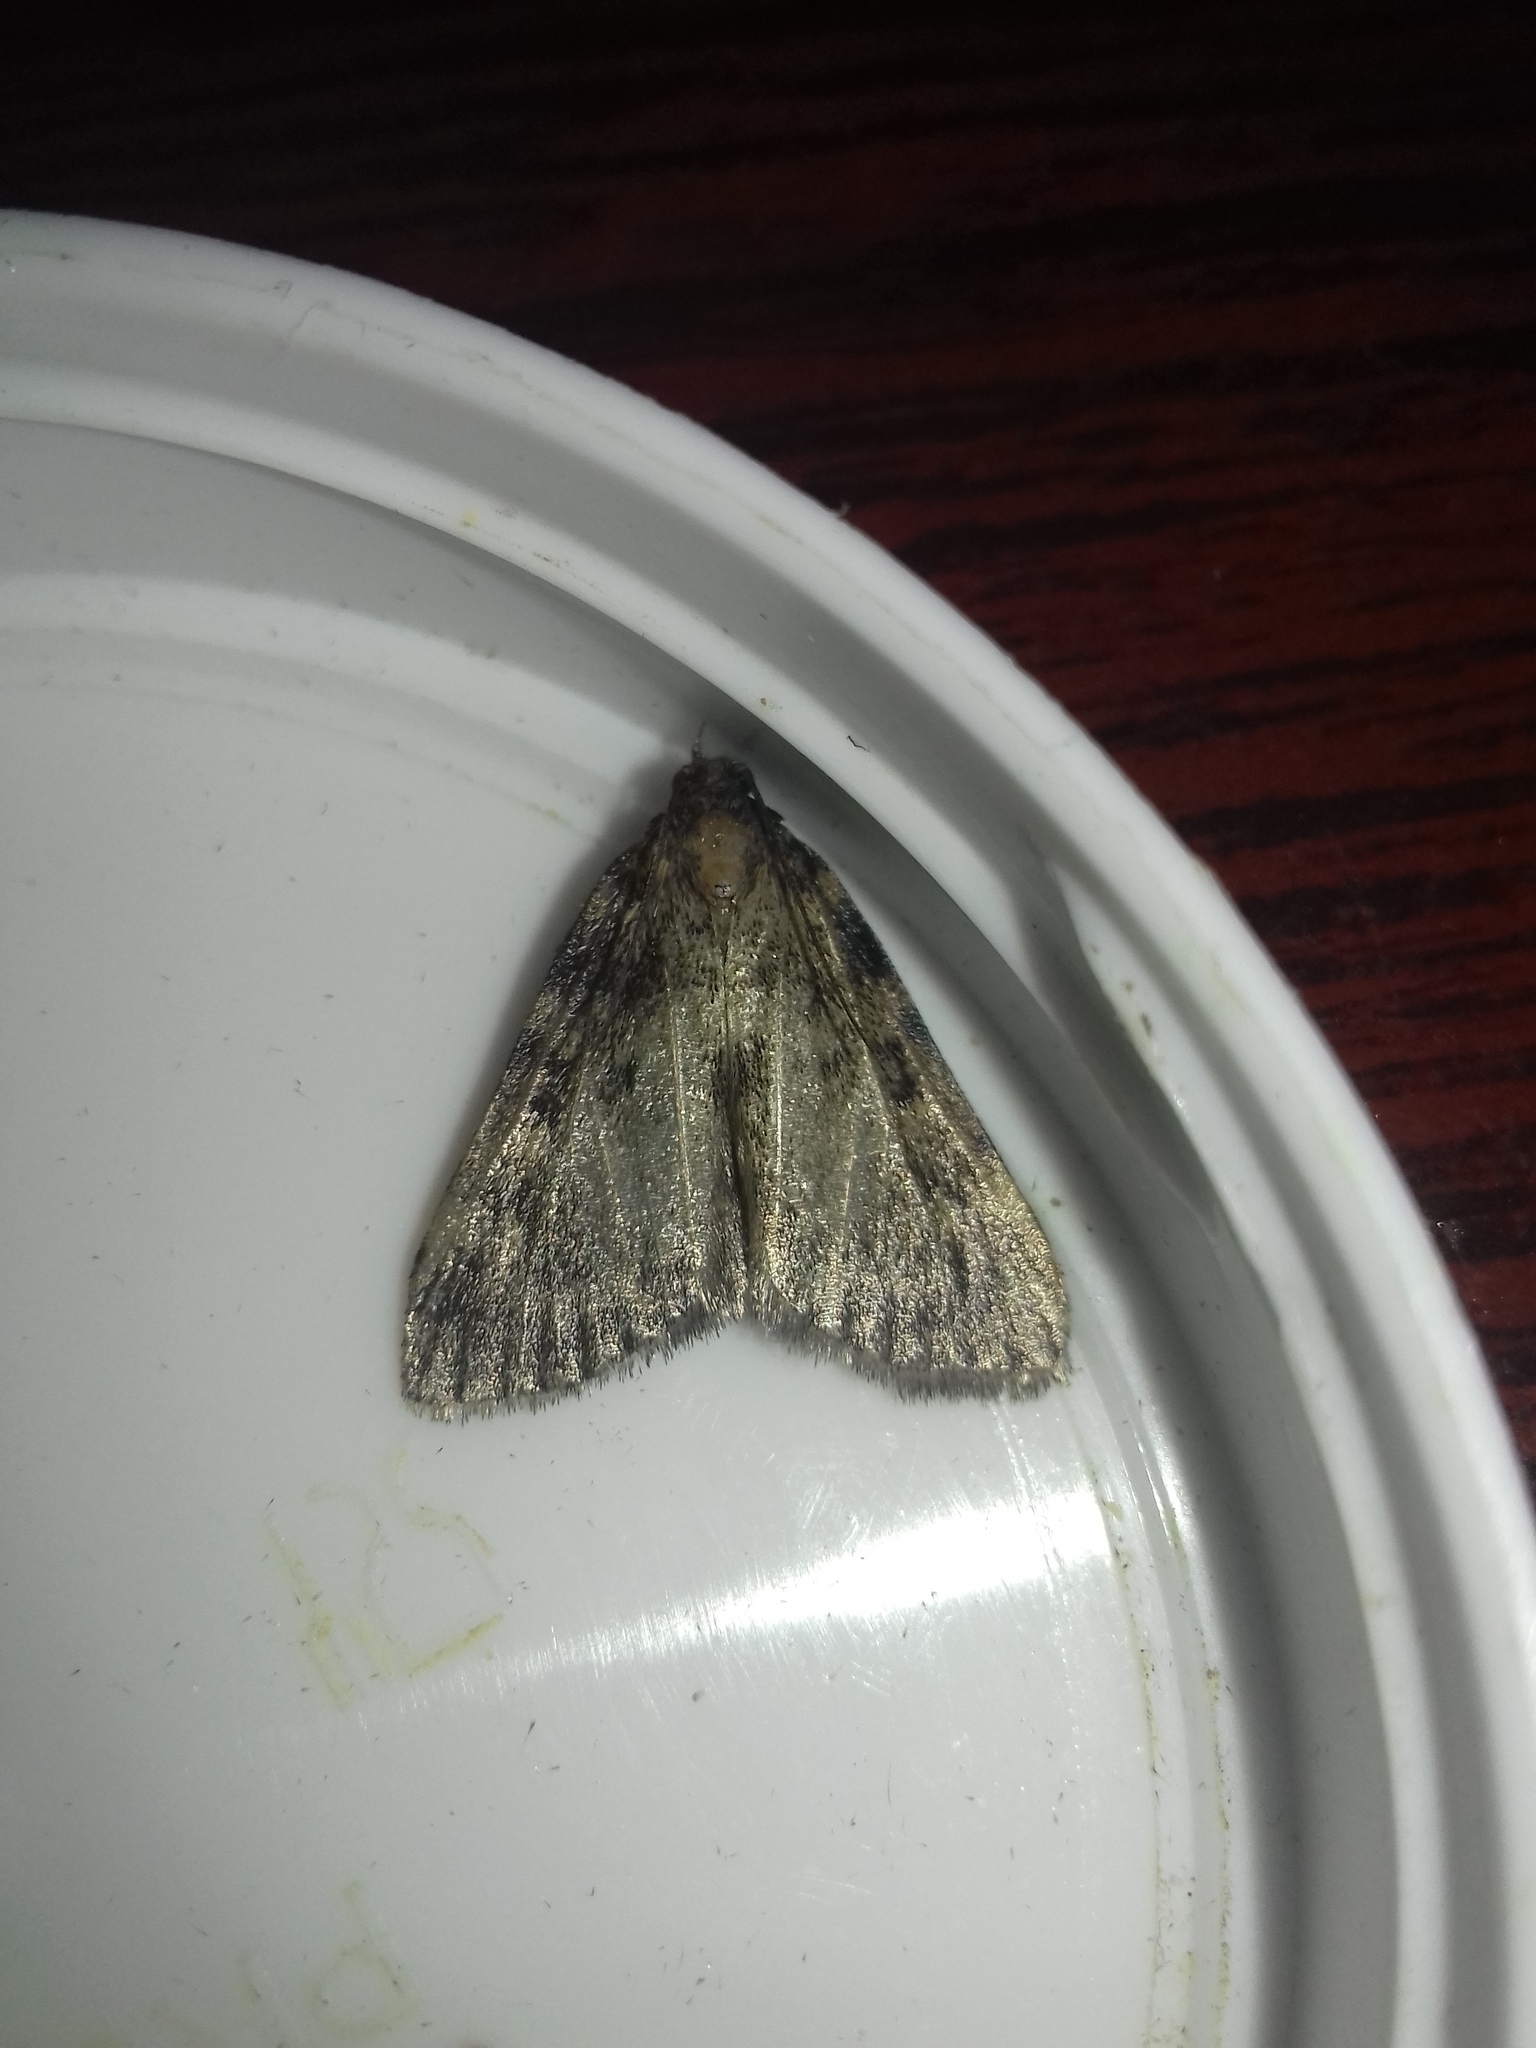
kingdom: Animalia
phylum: Arthropoda
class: Insecta
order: Lepidoptera
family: Pyralidae
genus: Aglossa
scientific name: Aglossa pinguinalis
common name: Large tabby
